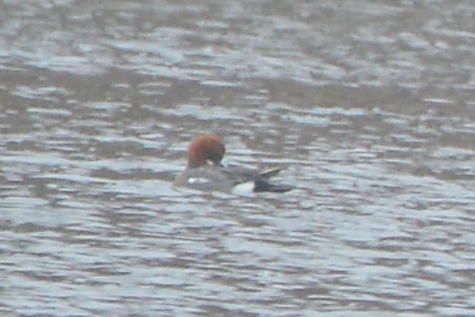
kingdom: Animalia
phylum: Chordata
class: Aves
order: Anseriformes
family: Anatidae
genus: Mareca
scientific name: Mareca penelope
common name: Eurasian wigeon
